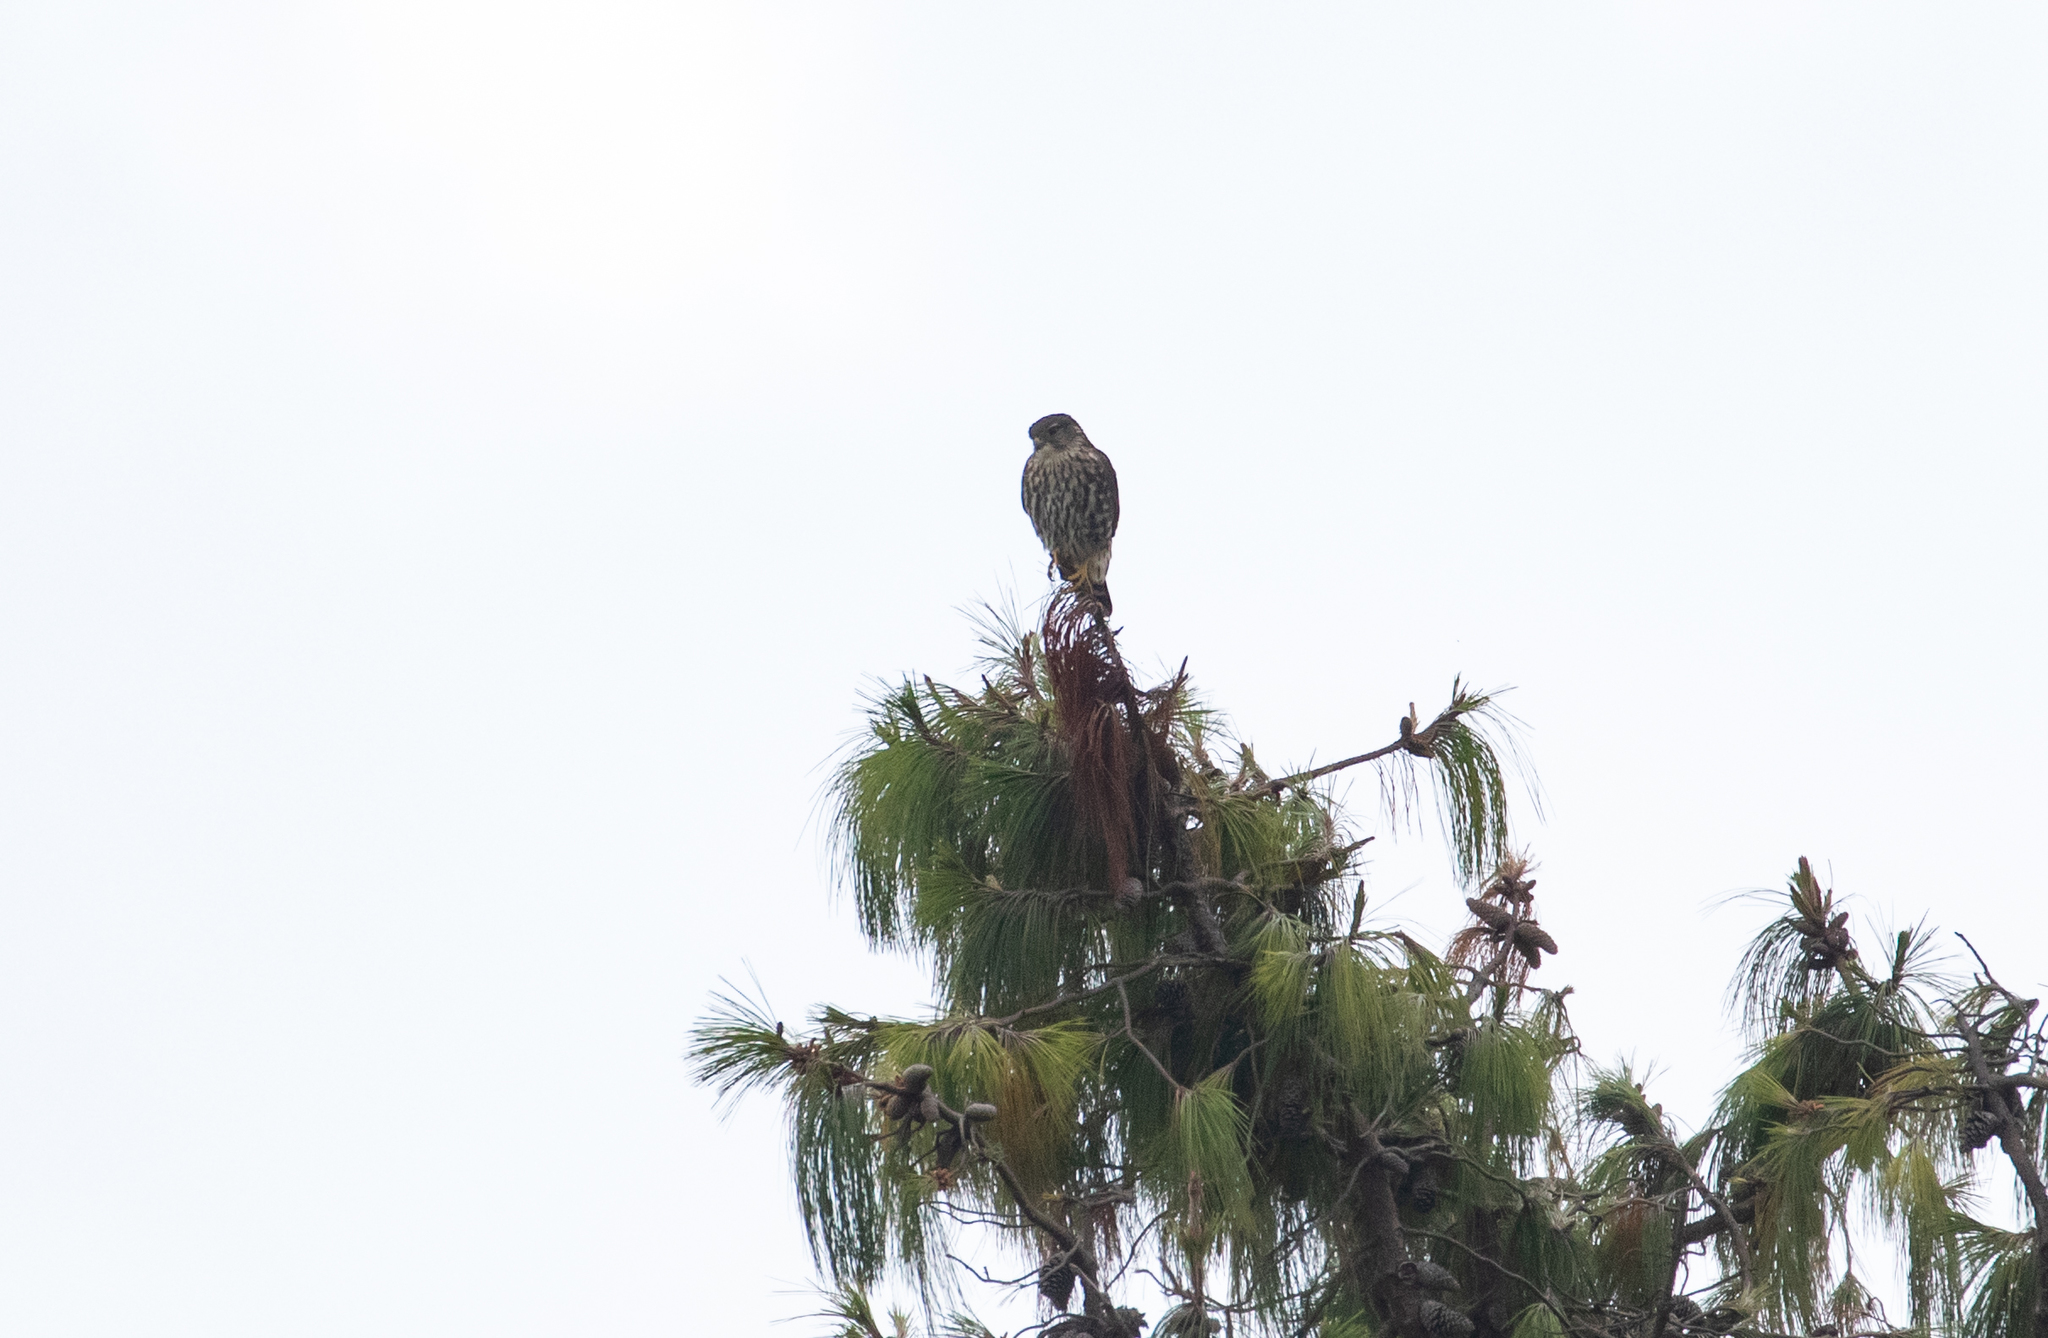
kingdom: Animalia
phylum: Chordata
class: Aves
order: Falconiformes
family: Falconidae
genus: Falco
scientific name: Falco columbarius
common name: Merlin
